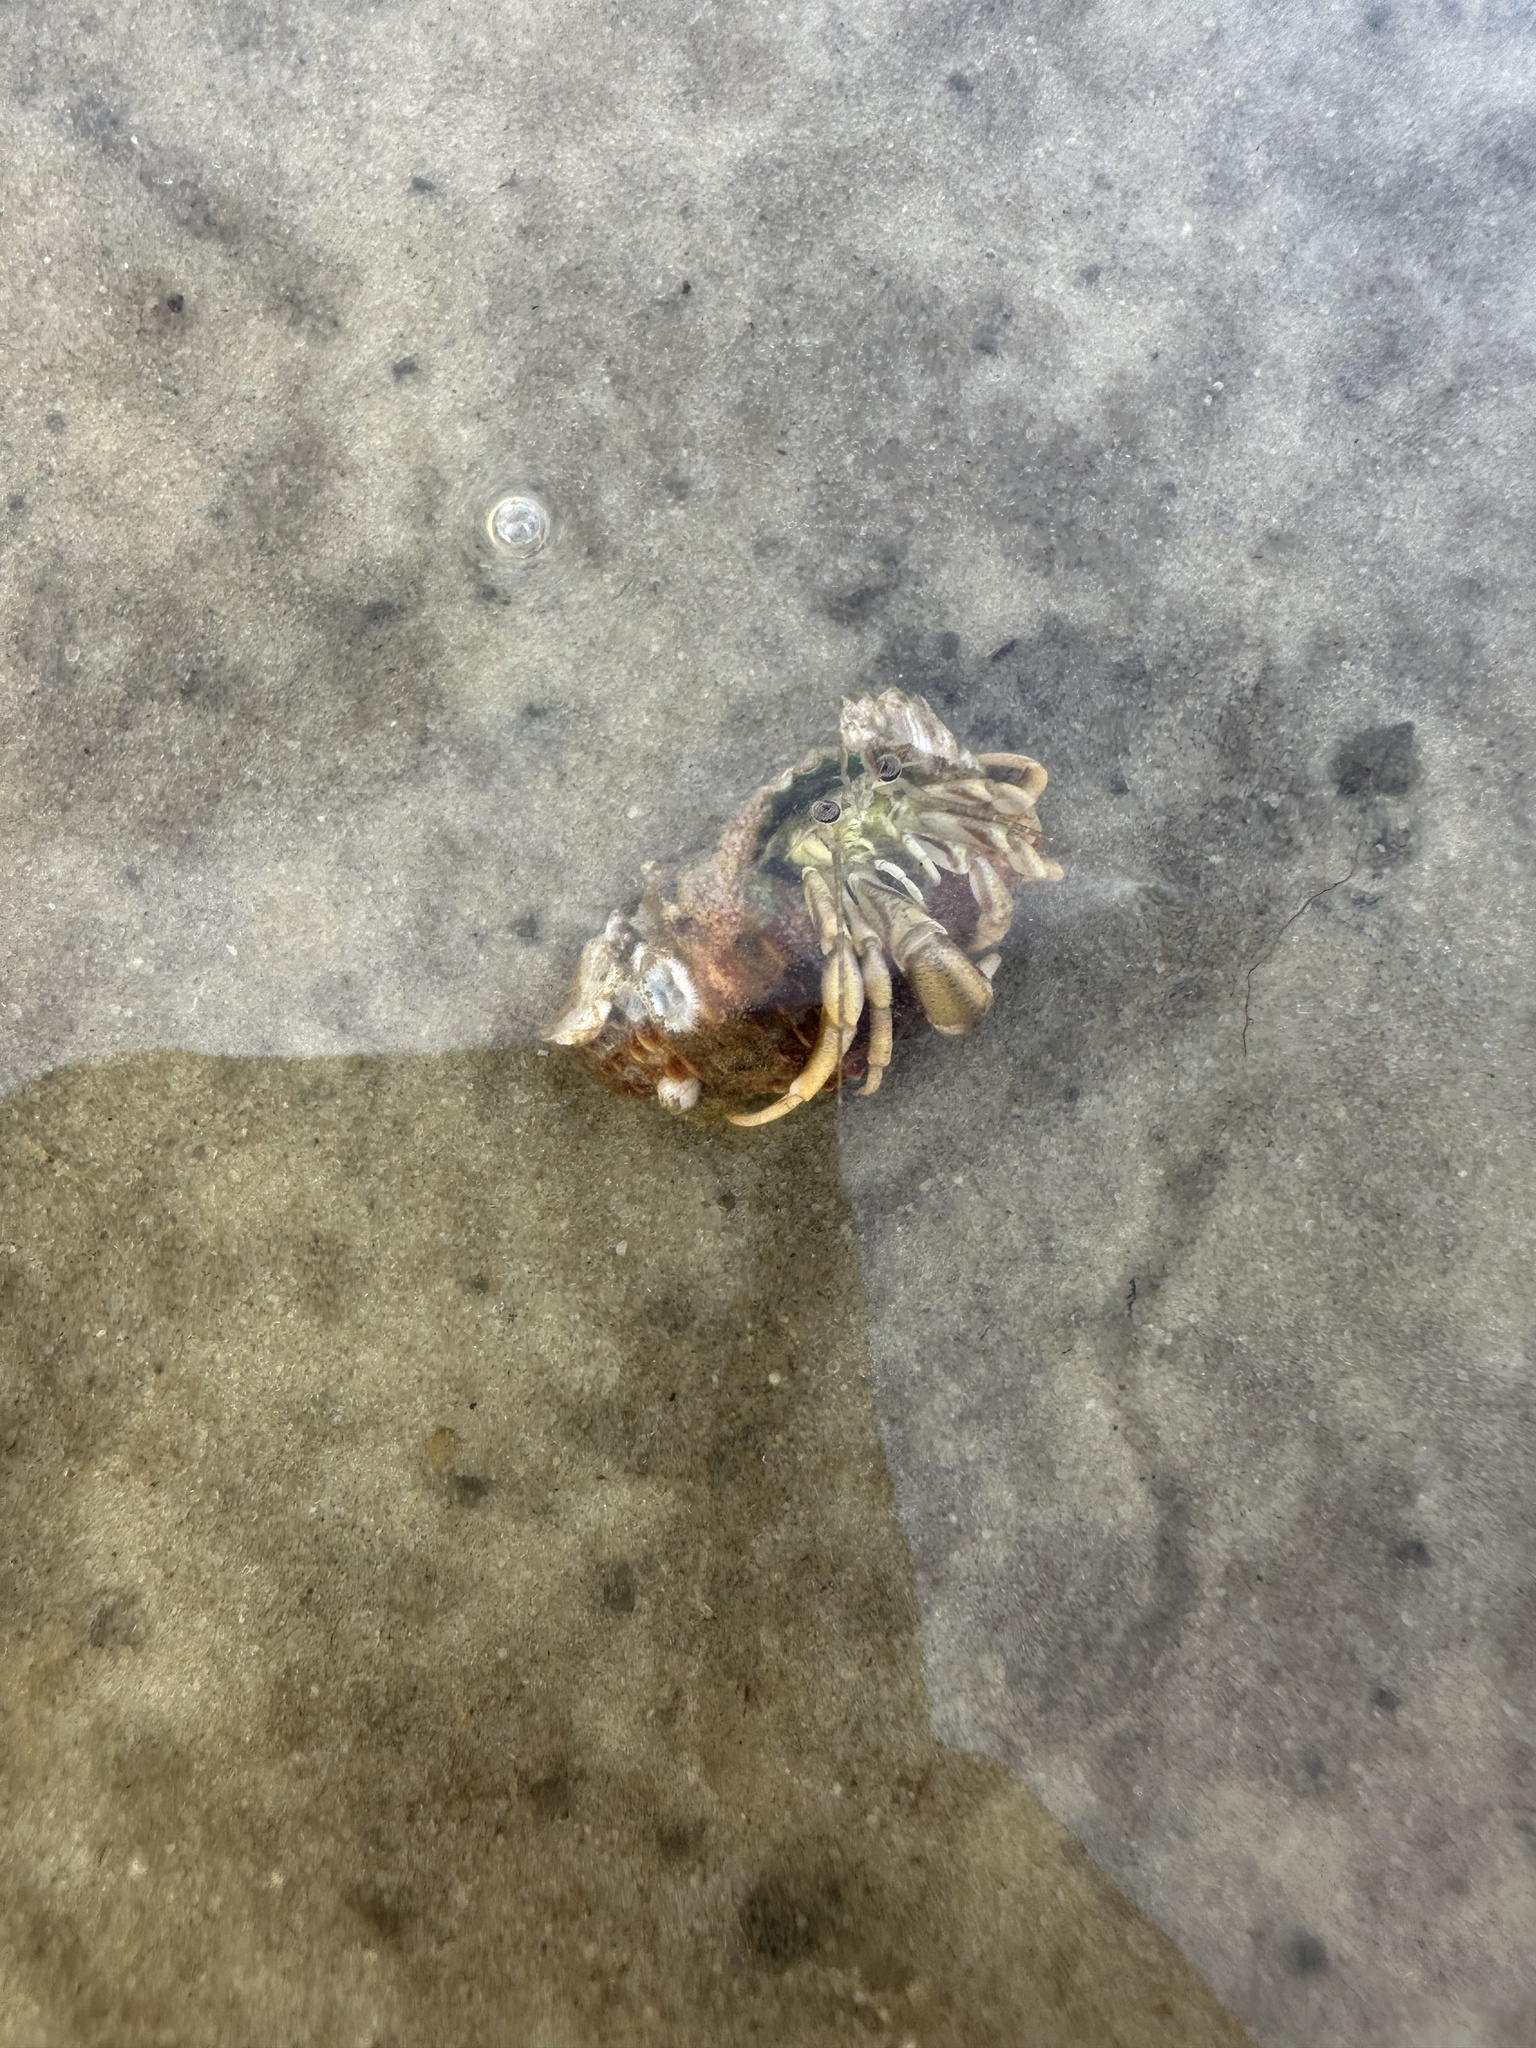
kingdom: Animalia
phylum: Arthropoda
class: Malacostraca
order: Decapoda
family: Paguridae
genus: Pagurus
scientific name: Pagurus longicarpus
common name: Long-armed hermit crab
